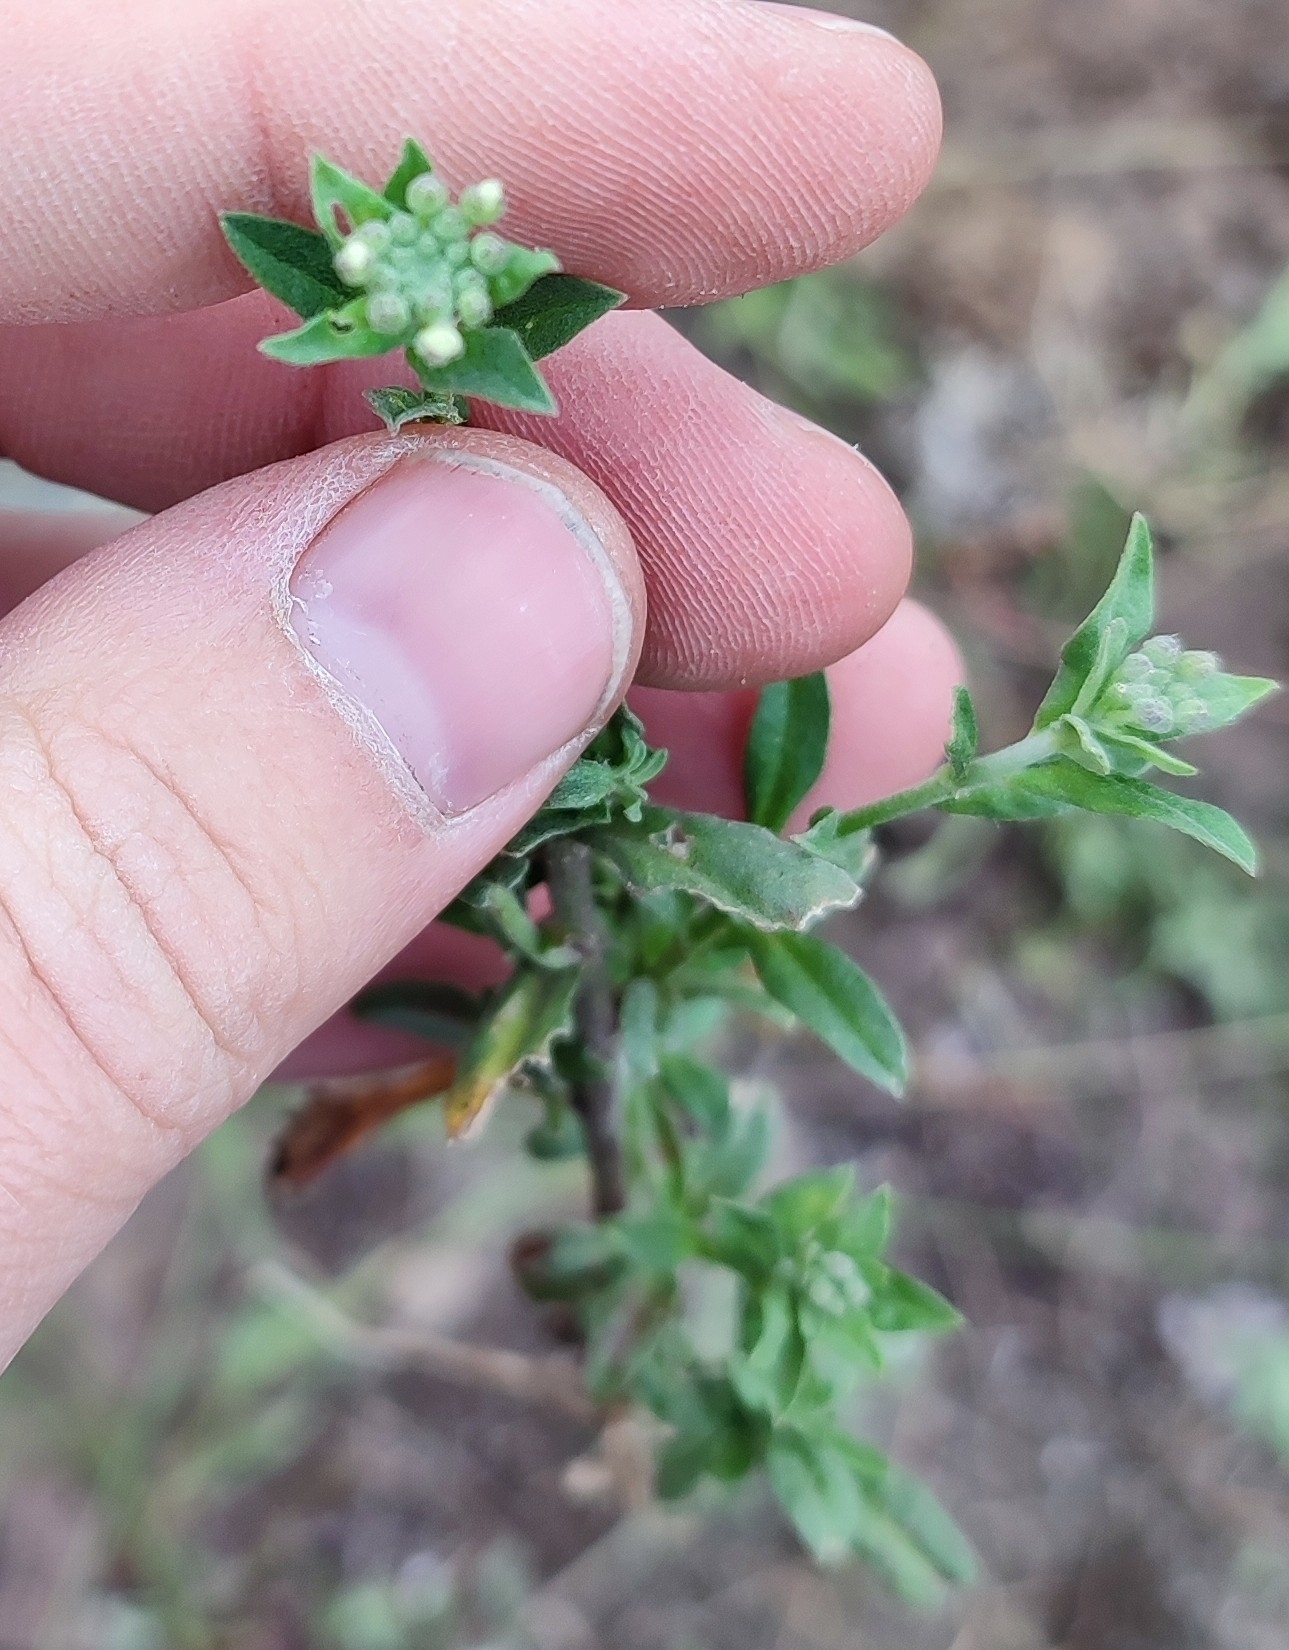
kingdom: Plantae
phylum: Tracheophyta
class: Magnoliopsida
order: Brassicales
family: Brassicaceae
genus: Berteroa
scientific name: Berteroa incana
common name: Hoary alison
